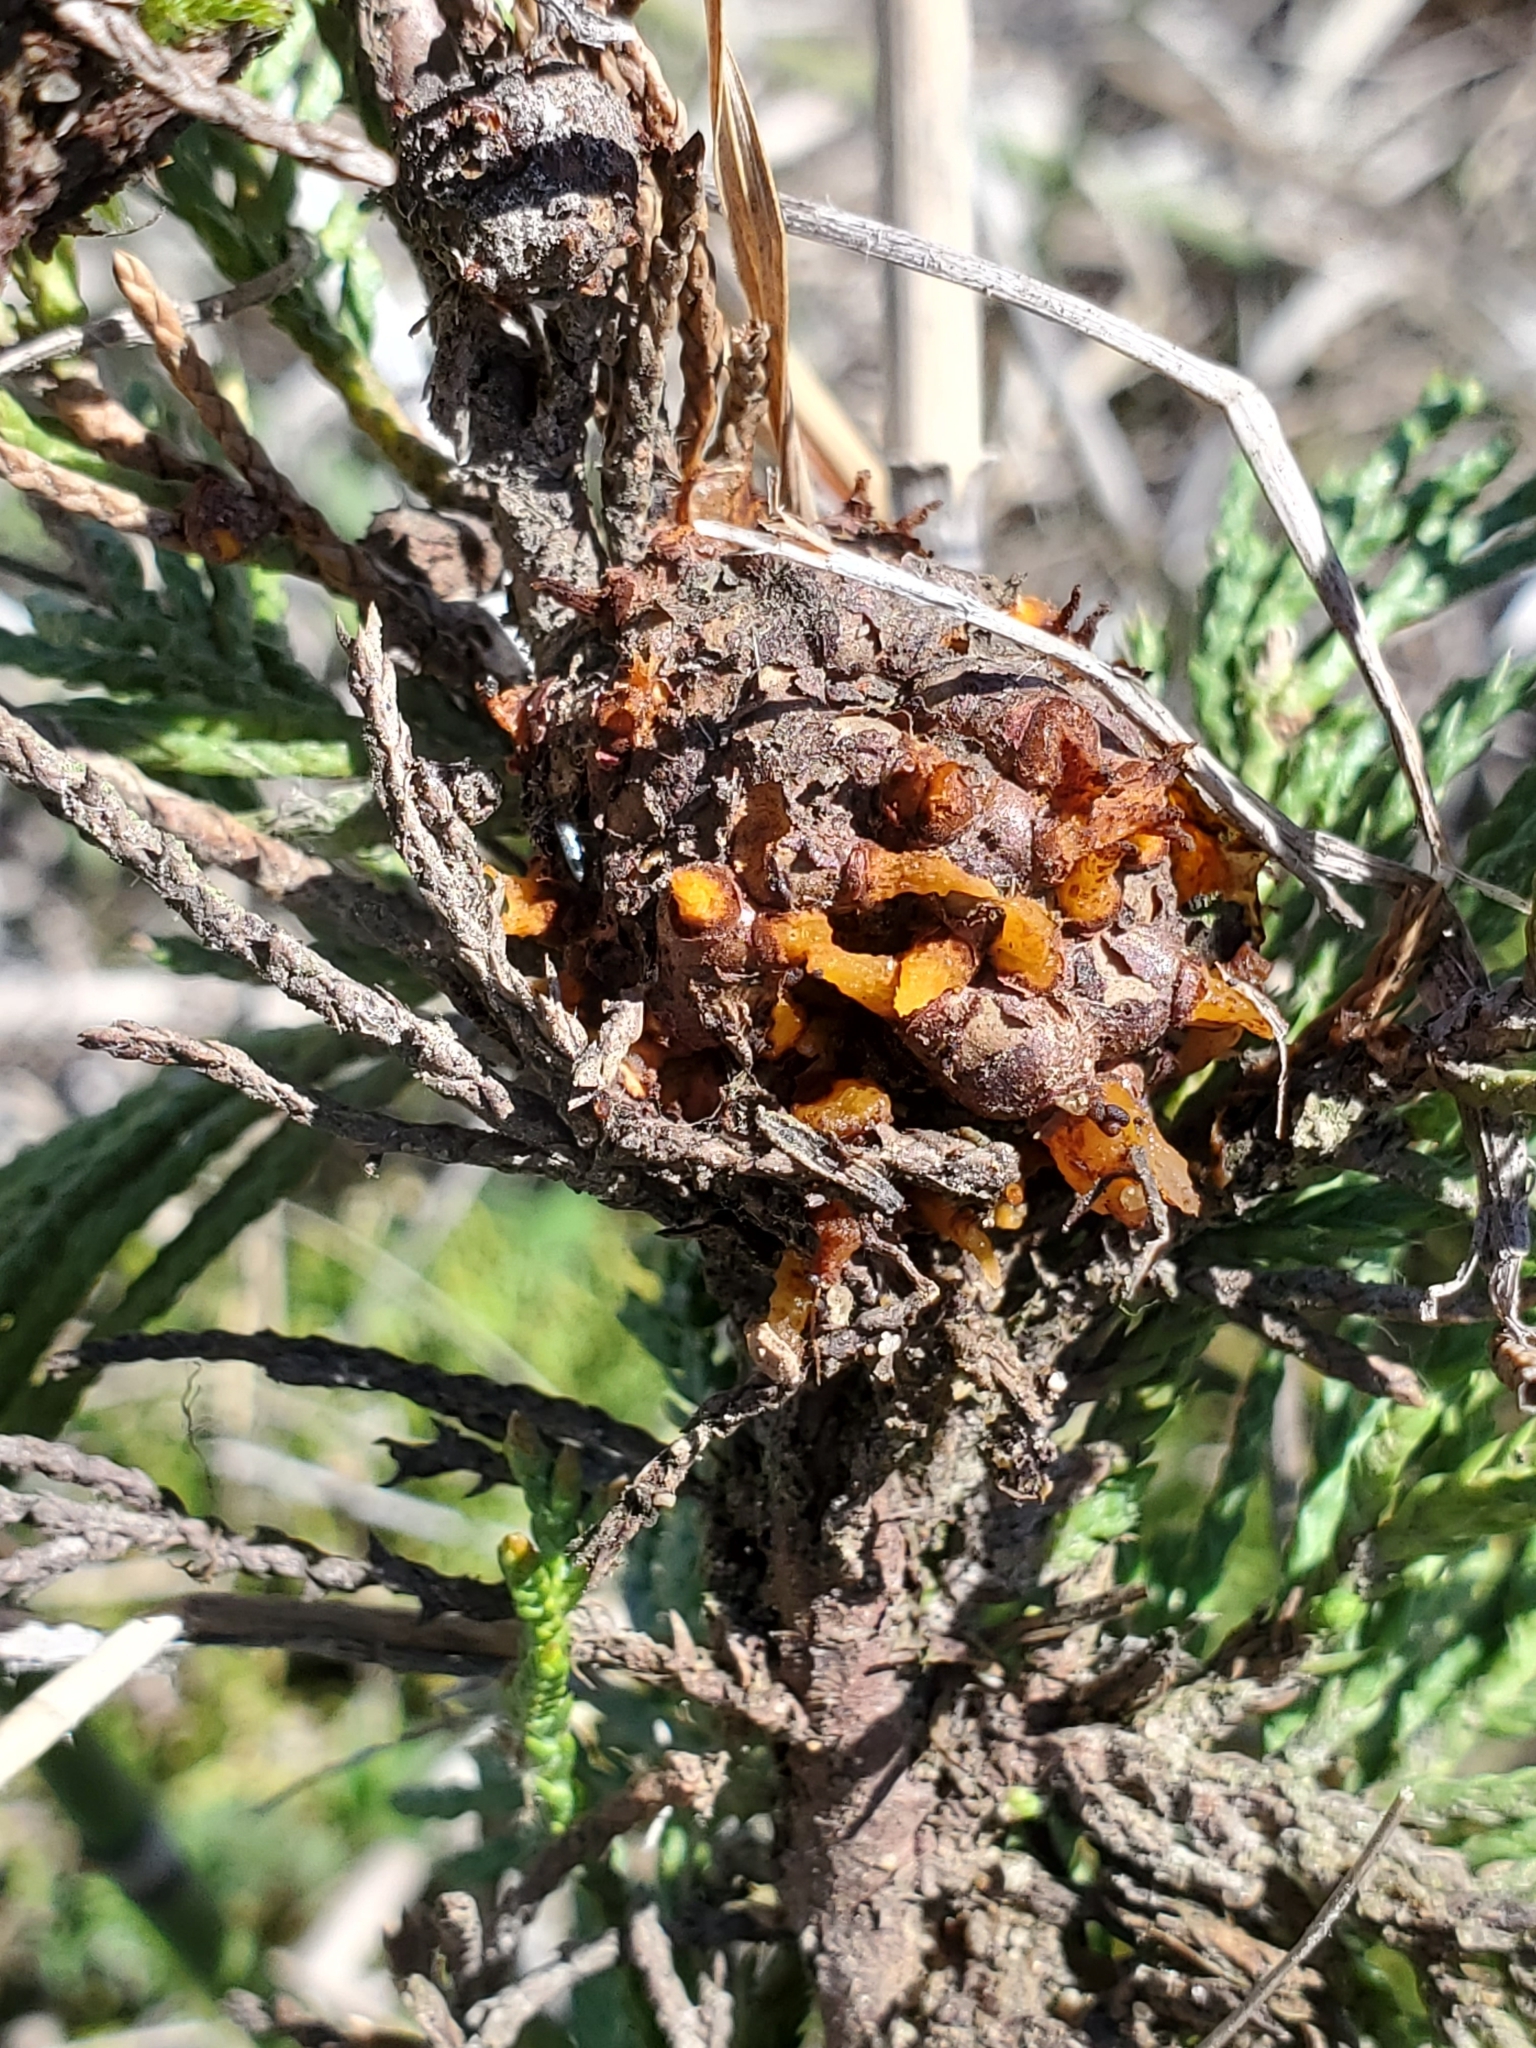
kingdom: Fungi
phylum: Basidiomycota
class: Pucciniomycetes
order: Pucciniales
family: Gymnosporangiaceae
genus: Gymnosporangium
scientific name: Gymnosporangium juniperi-virginianae
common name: Juniper-apple rust
